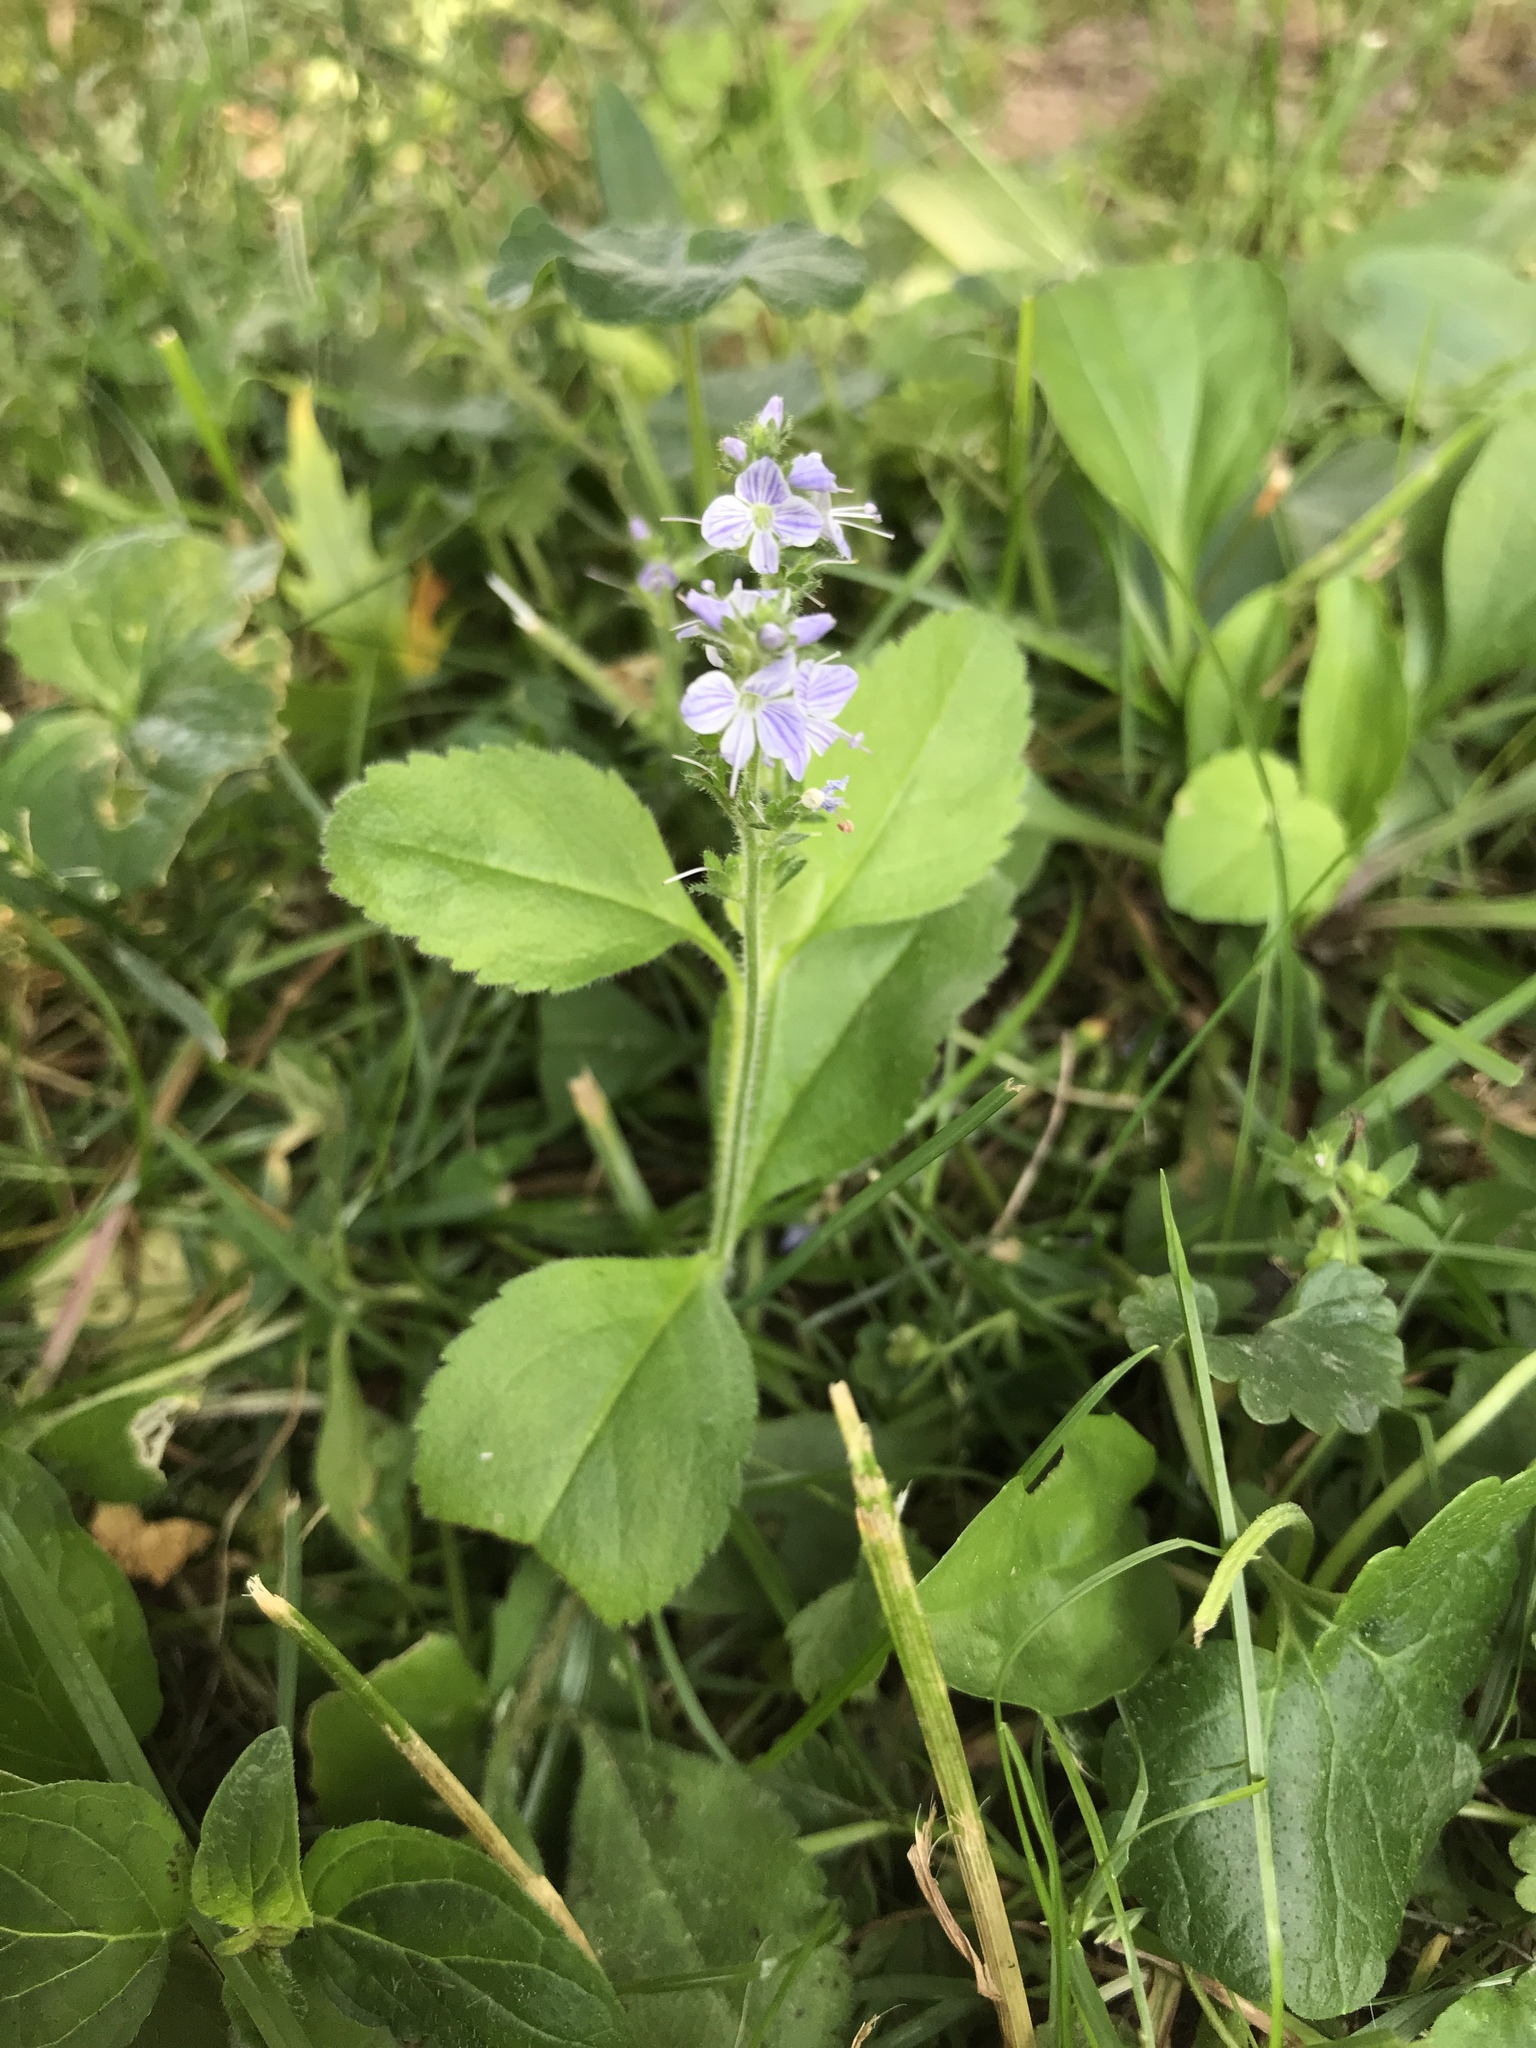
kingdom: Plantae
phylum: Tracheophyta
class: Magnoliopsida
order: Lamiales
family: Plantaginaceae
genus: Veronica
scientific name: Veronica officinalis
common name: Common speedwell
